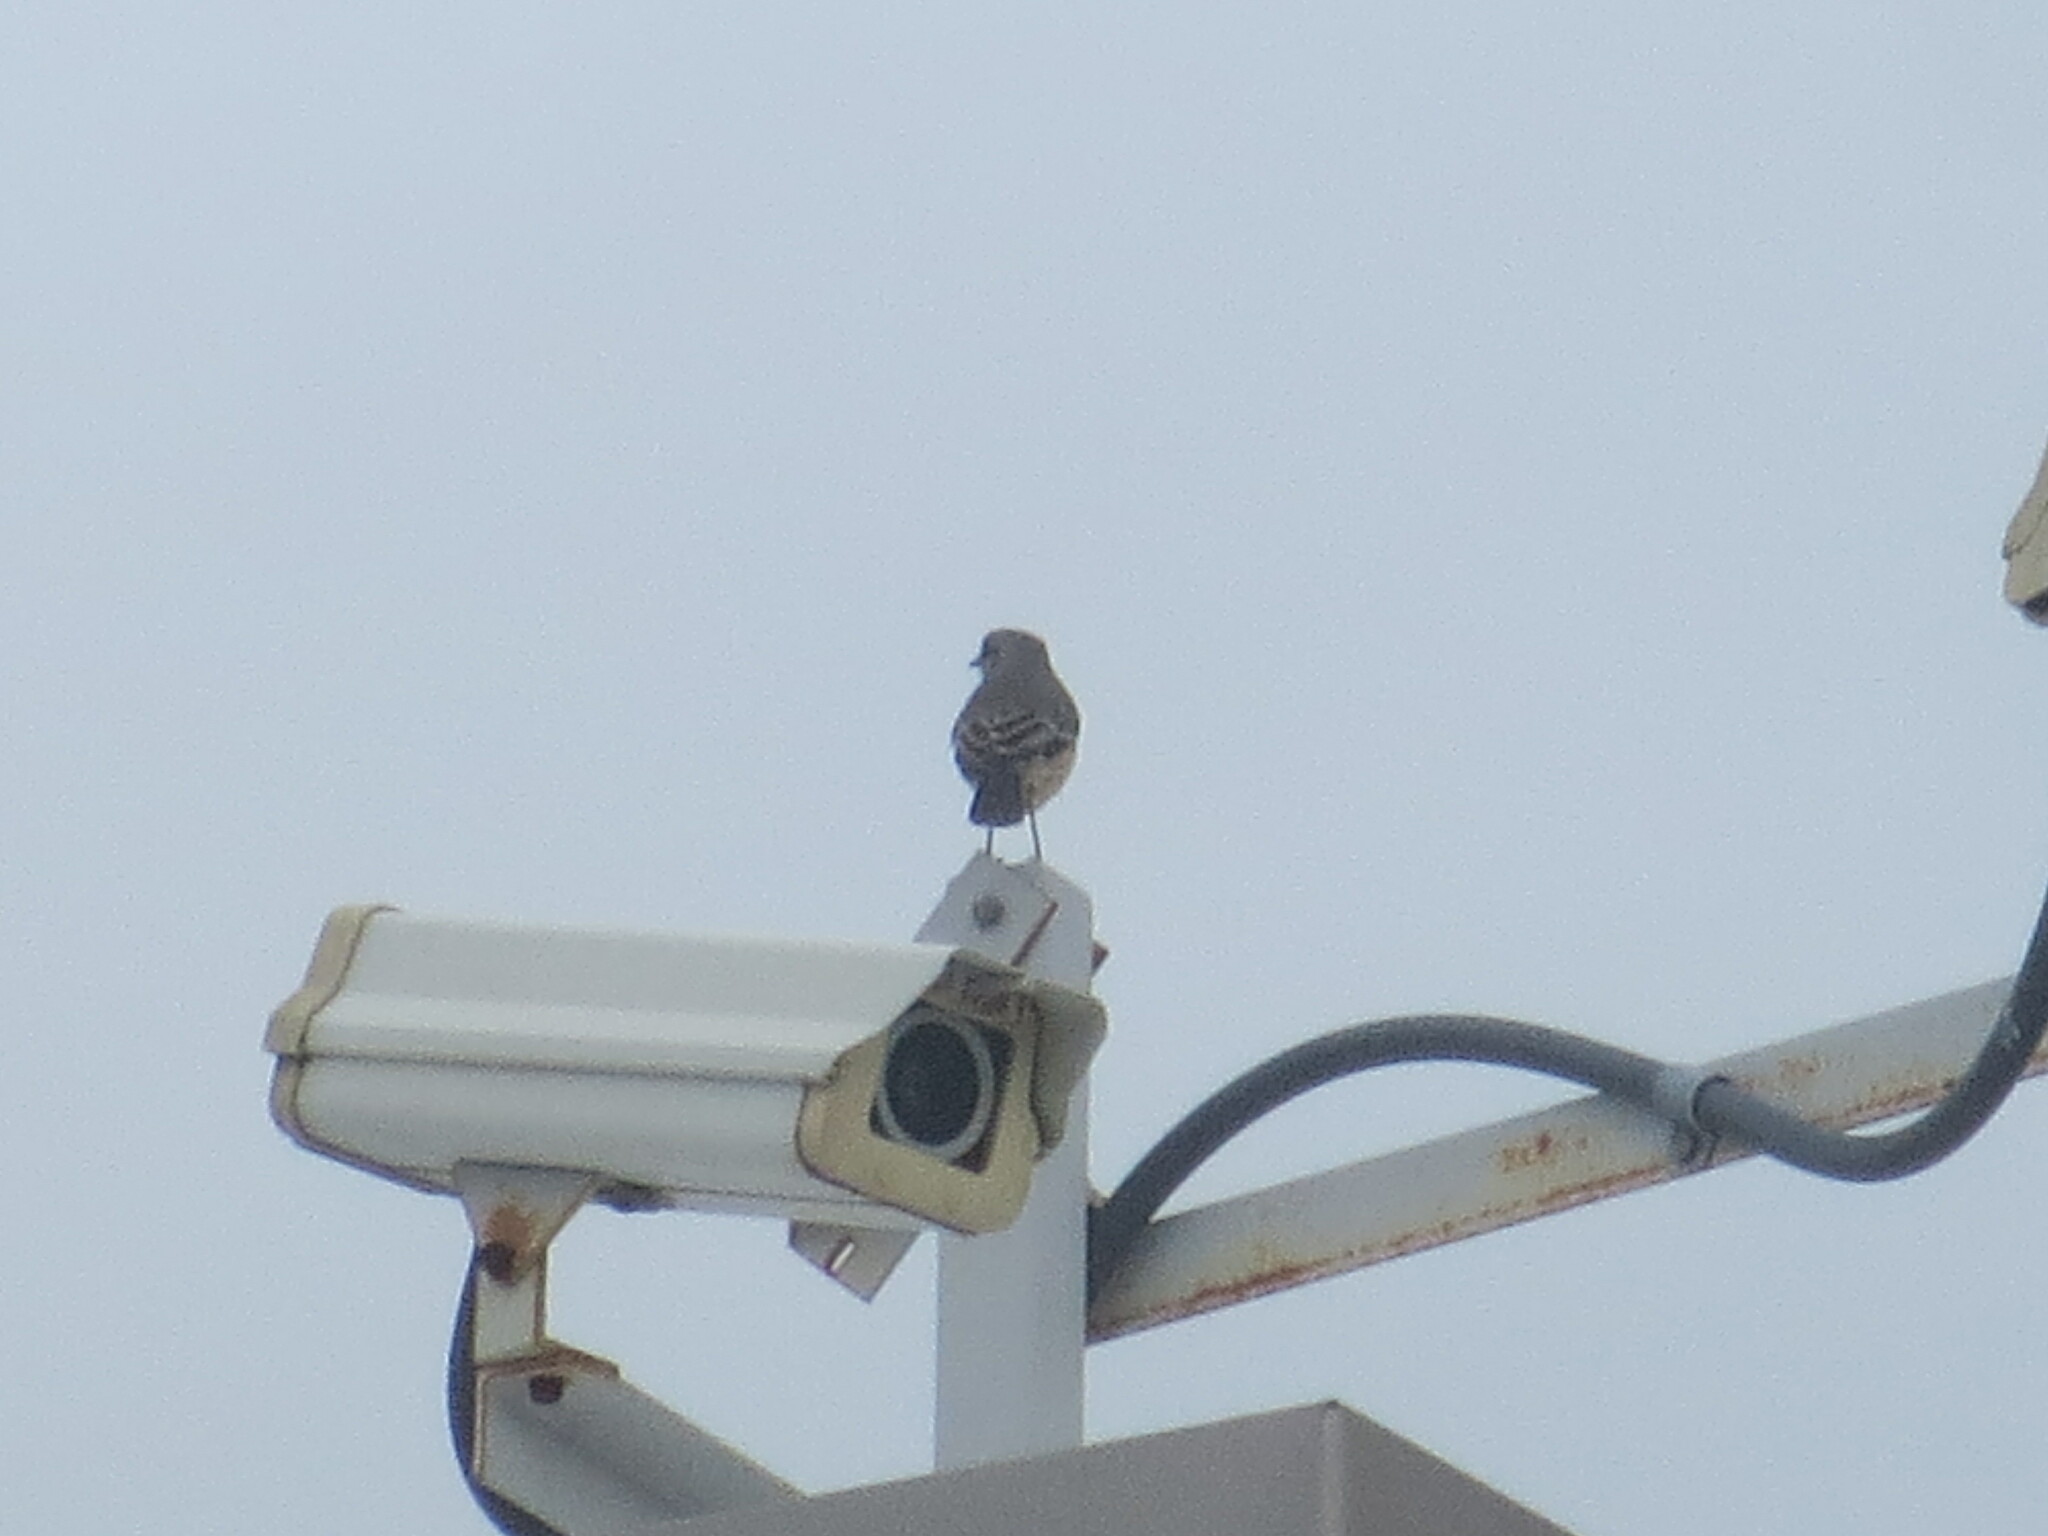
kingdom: Animalia
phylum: Chordata
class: Aves
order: Passeriformes
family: Mimidae
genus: Mimus
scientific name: Mimus polyglottos
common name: Northern mockingbird
